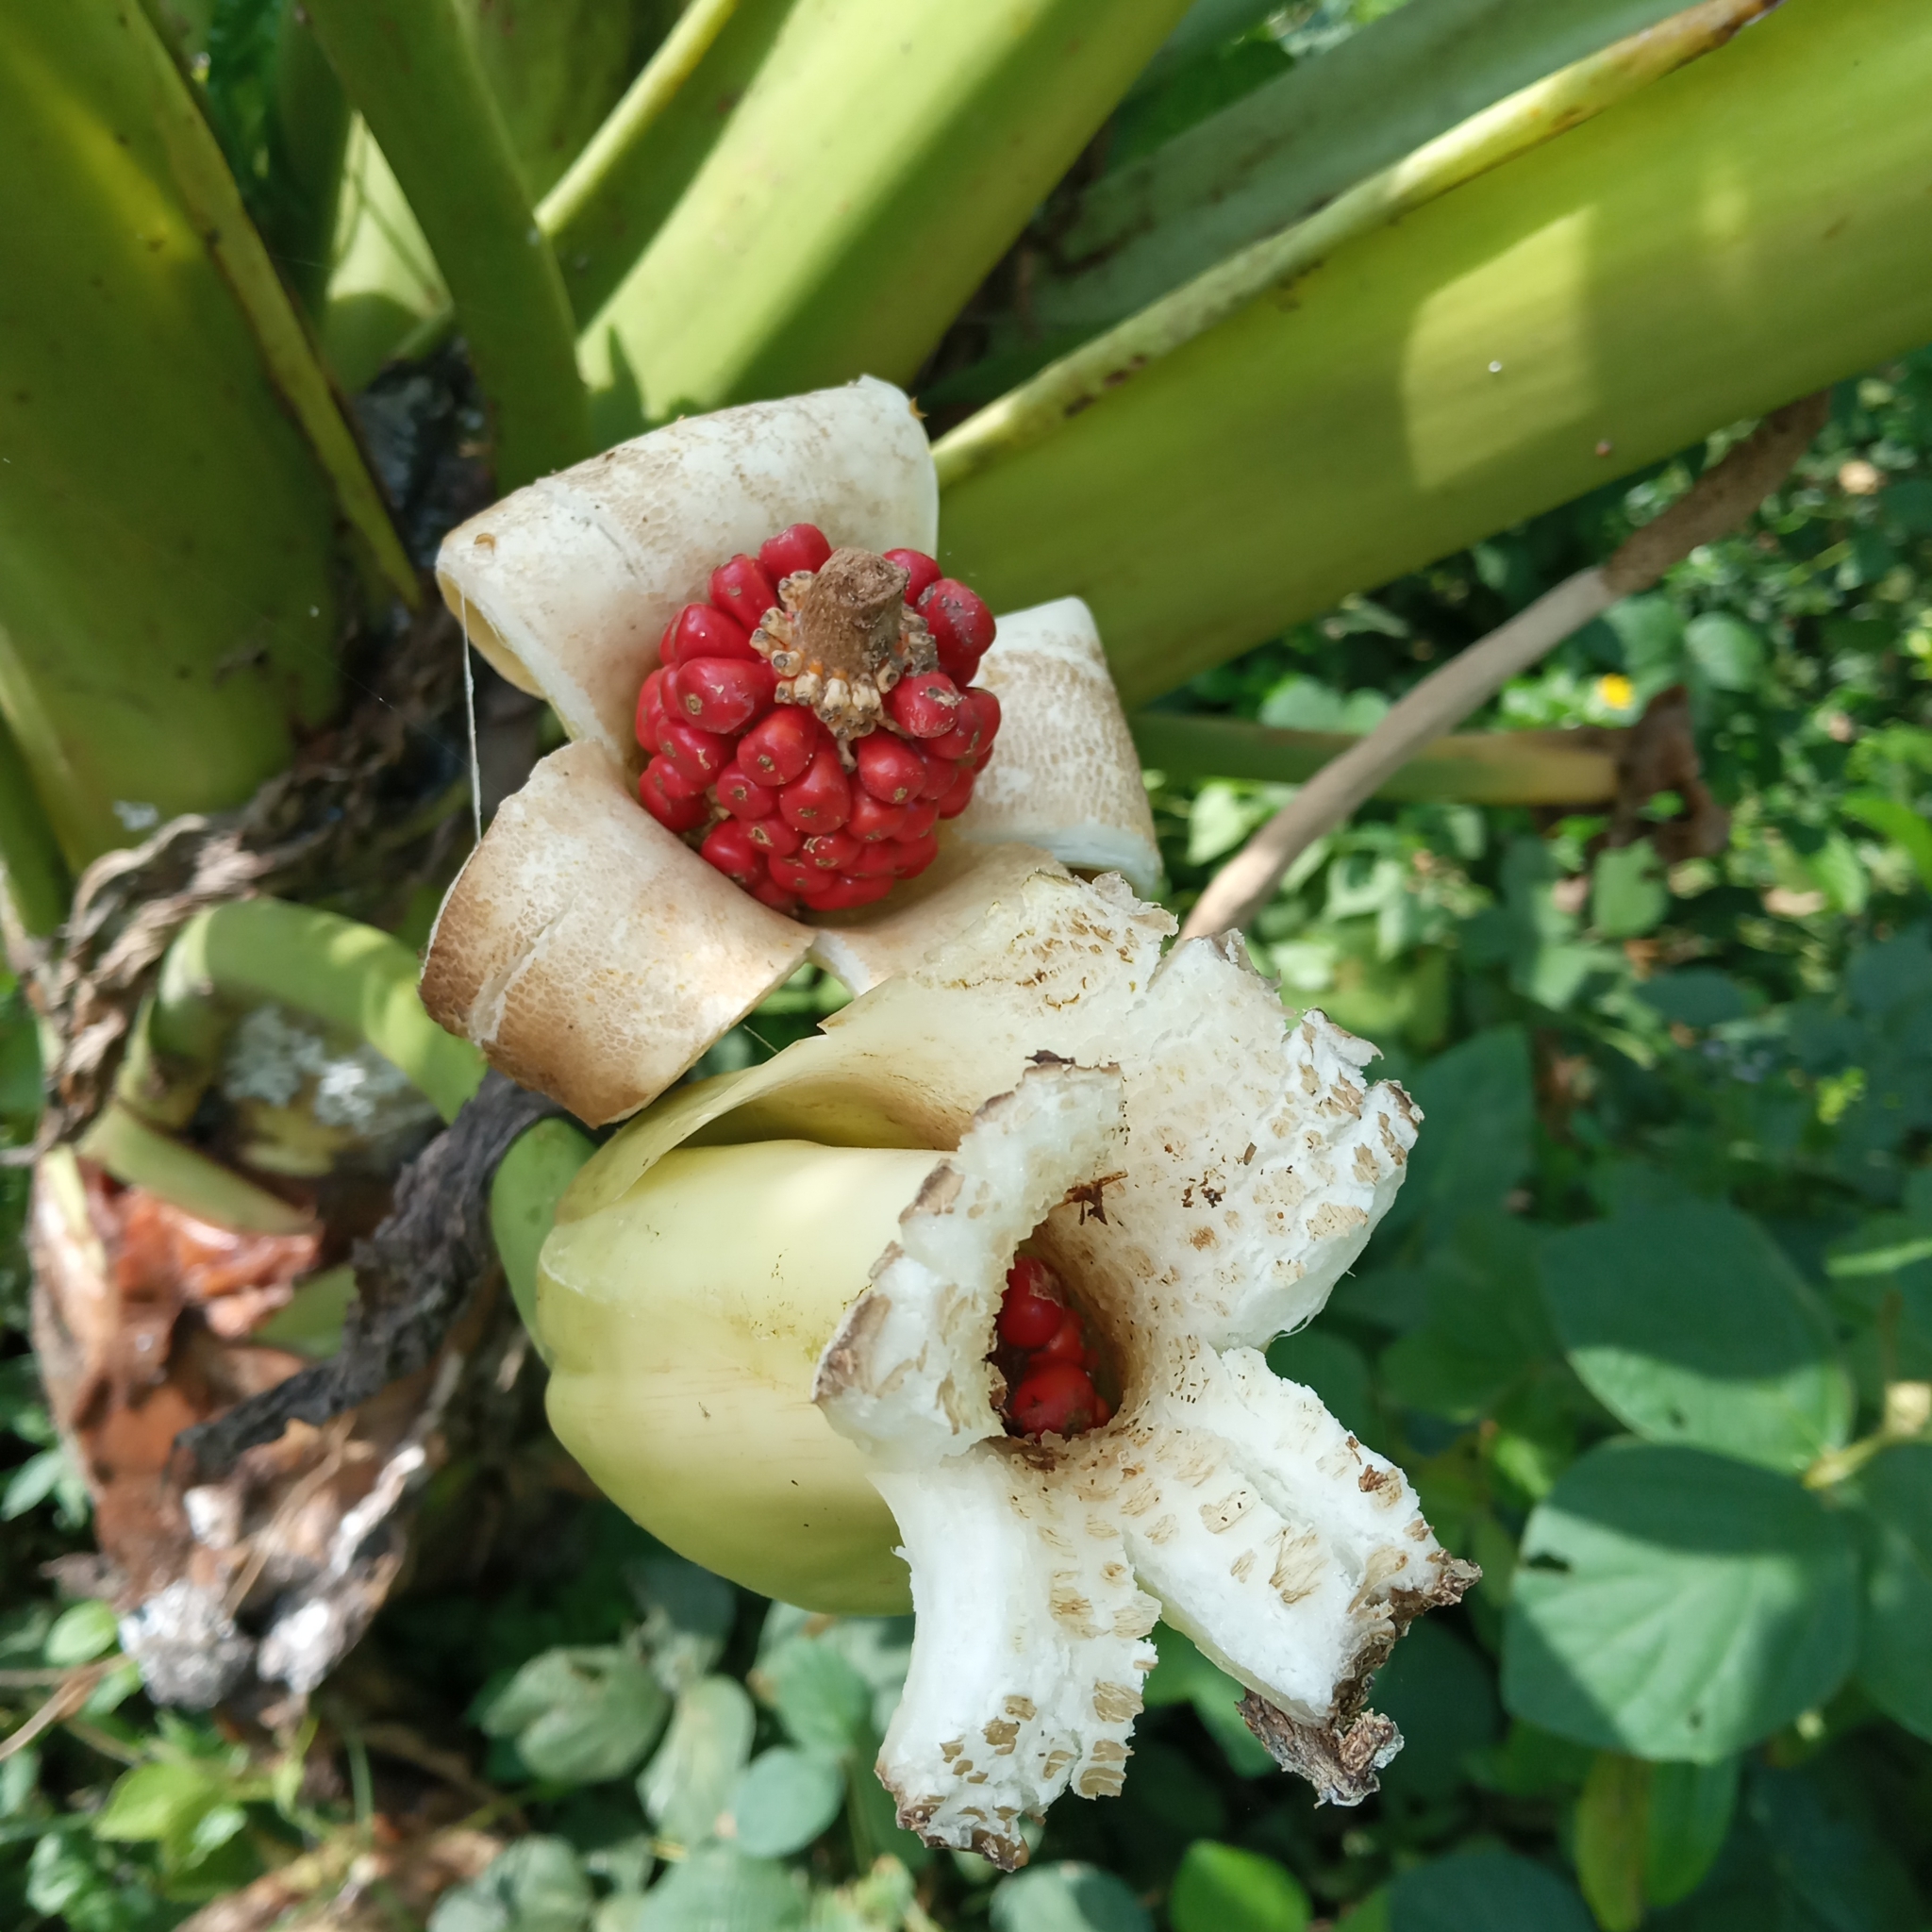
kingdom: Plantae
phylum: Tracheophyta
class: Liliopsida
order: Alismatales
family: Araceae
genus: Alocasia
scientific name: Alocasia macrorrhizos
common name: Giant taro
